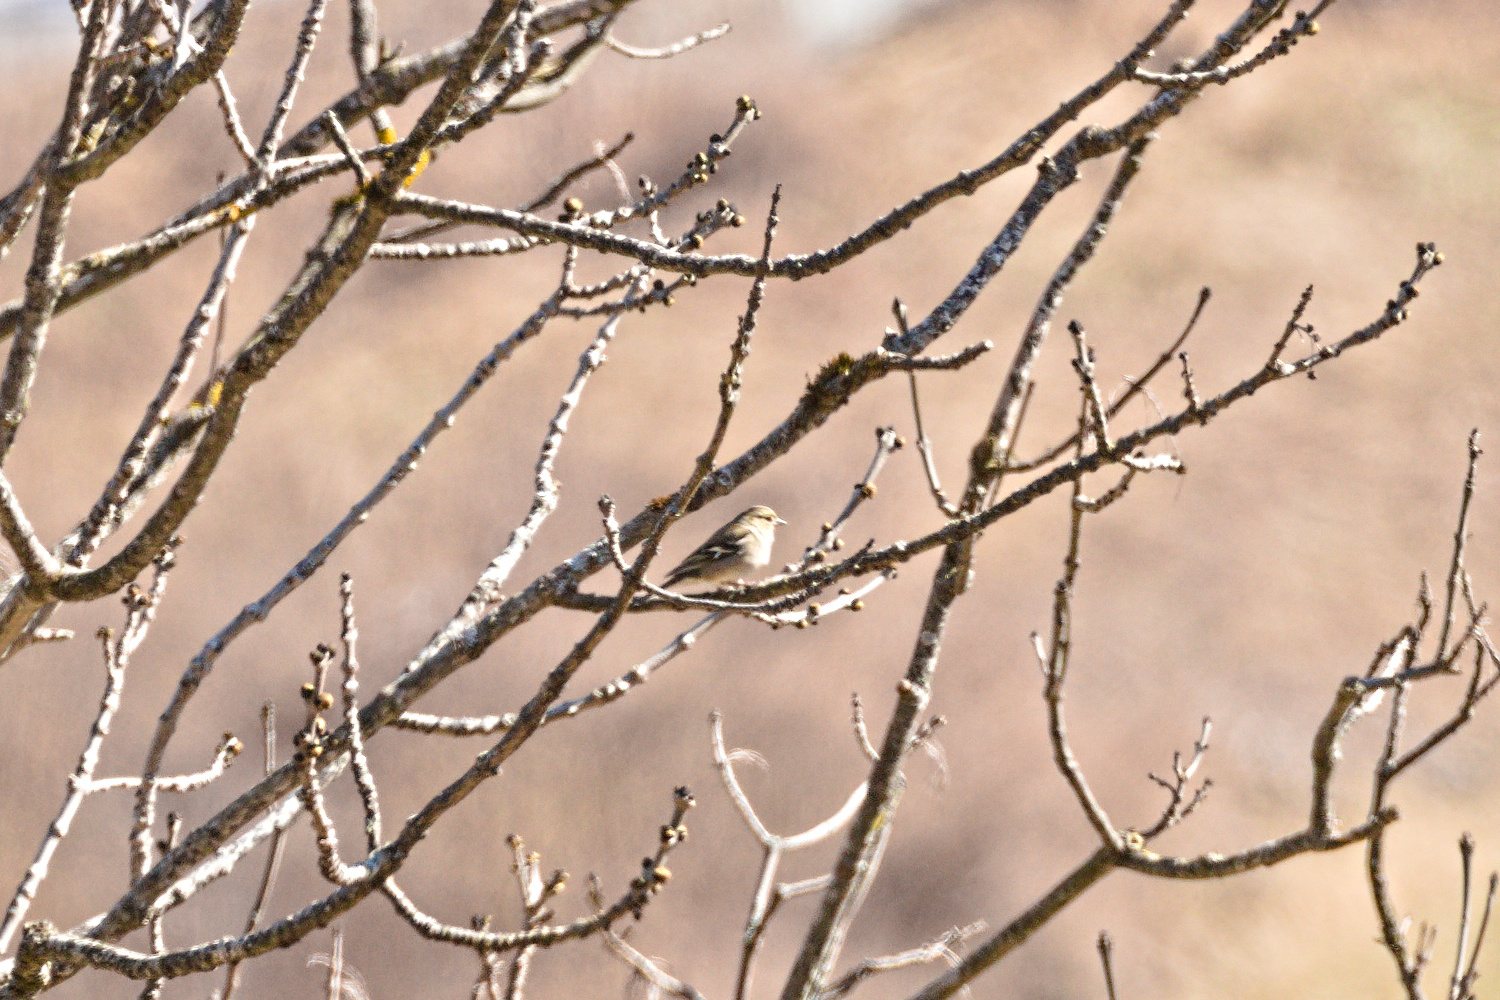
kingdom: Animalia
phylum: Chordata
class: Aves
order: Passeriformes
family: Fringillidae
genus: Fringilla
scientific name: Fringilla coelebs
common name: Common chaffinch
